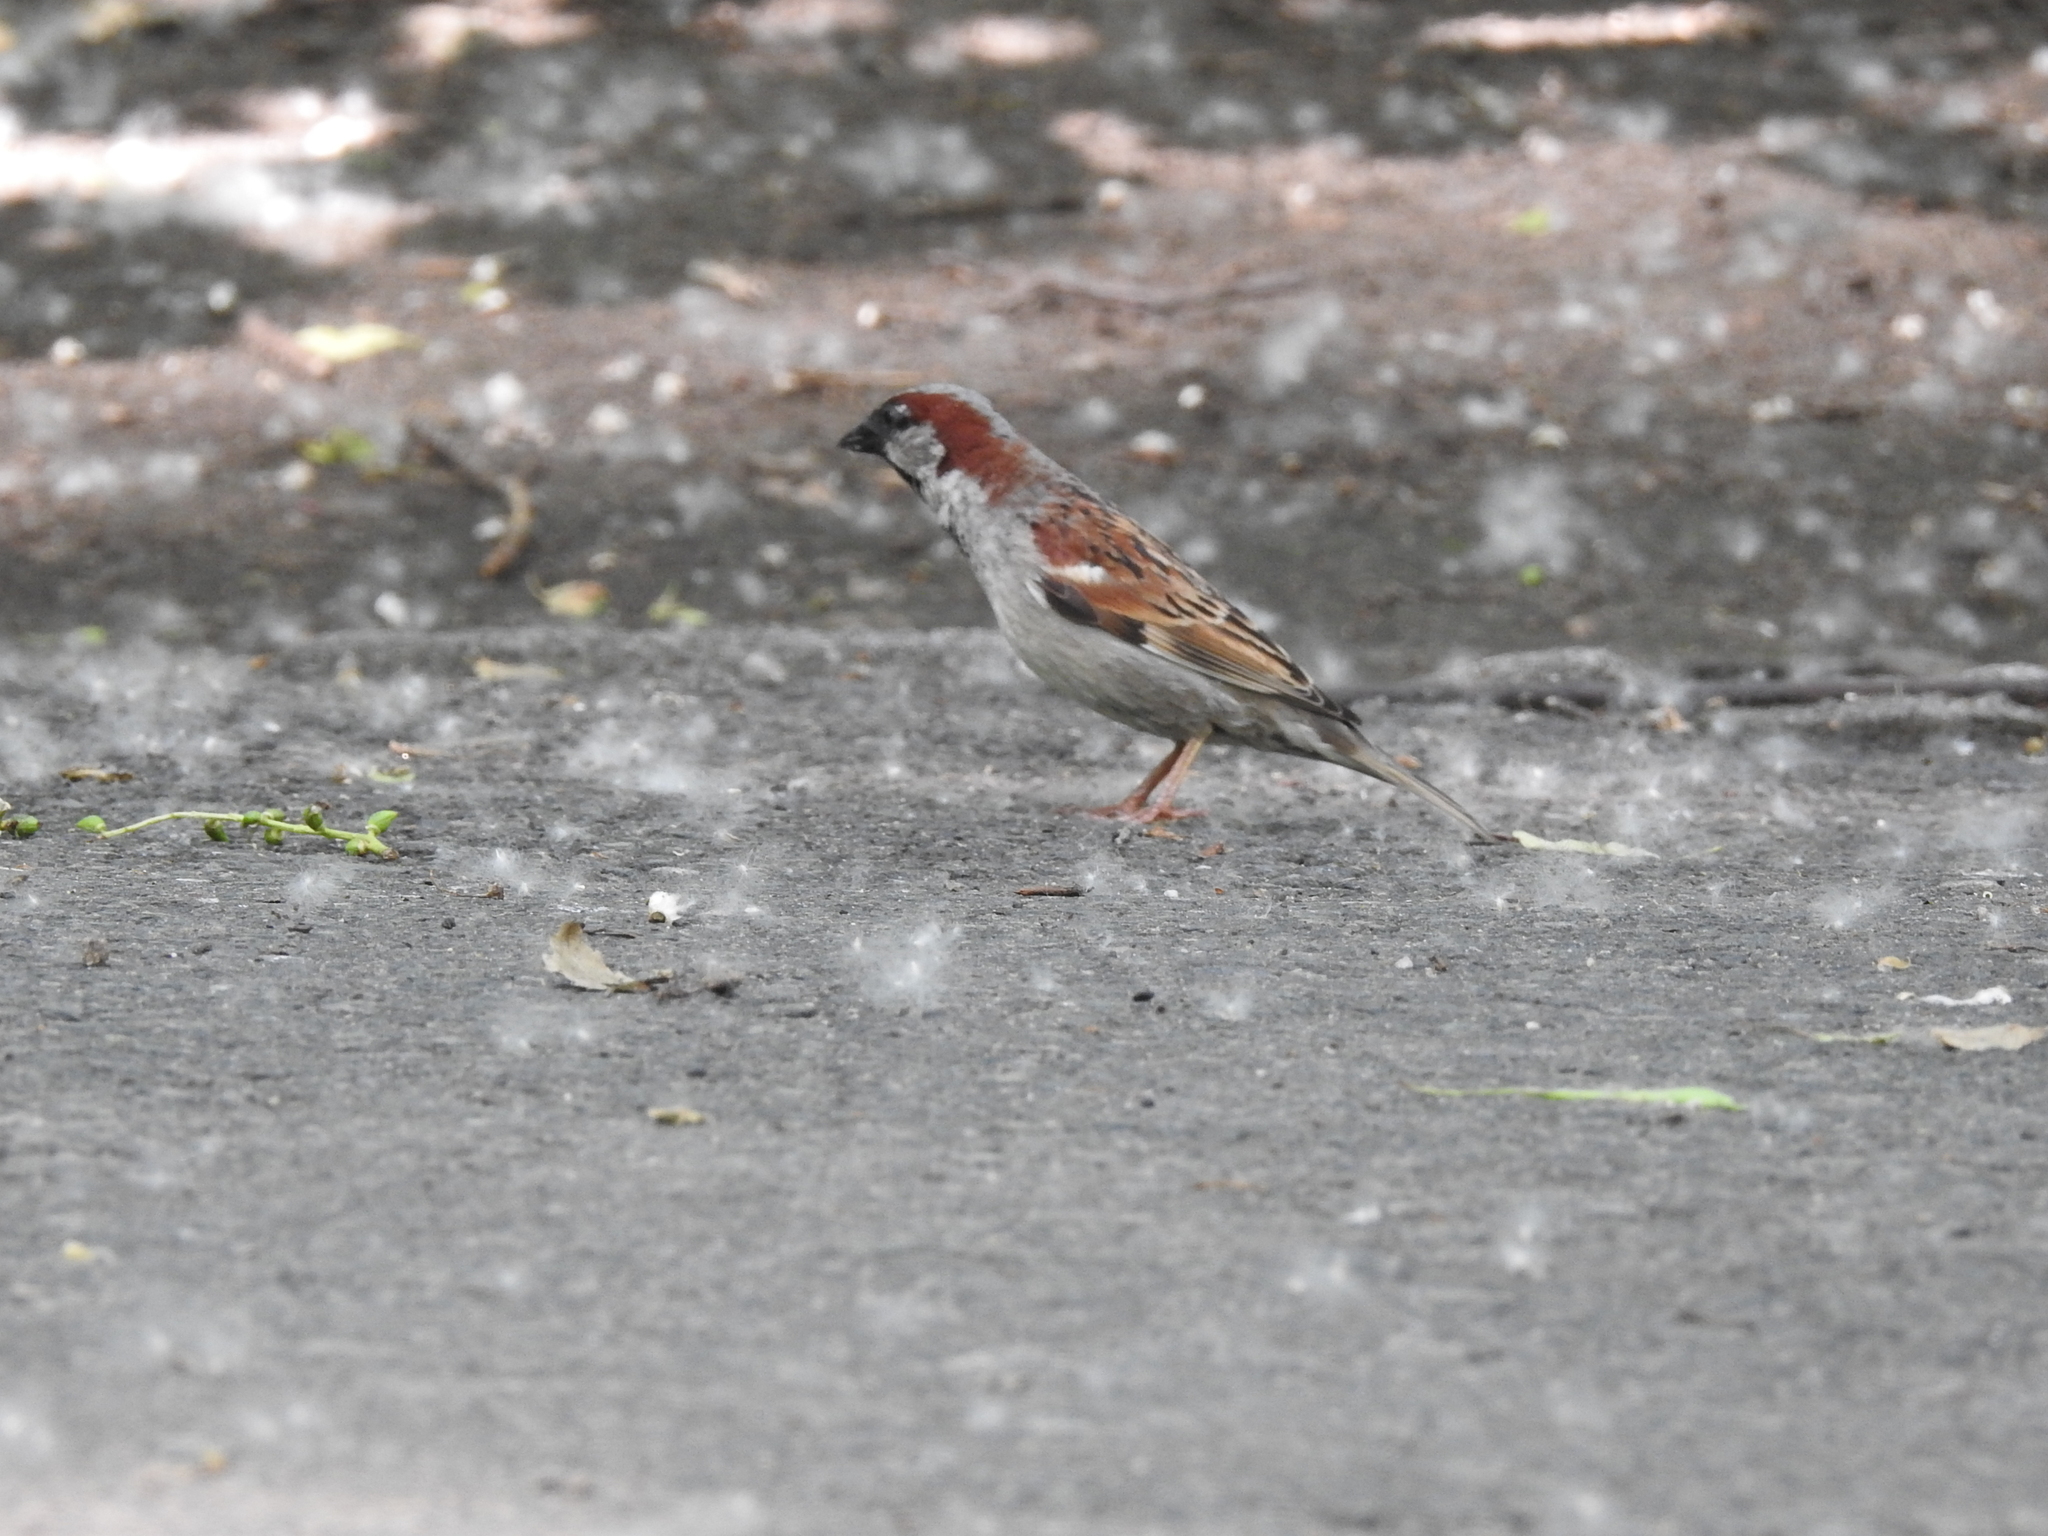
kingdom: Animalia
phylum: Chordata
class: Aves
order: Passeriformes
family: Passeridae
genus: Passer
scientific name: Passer domesticus
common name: House sparrow
